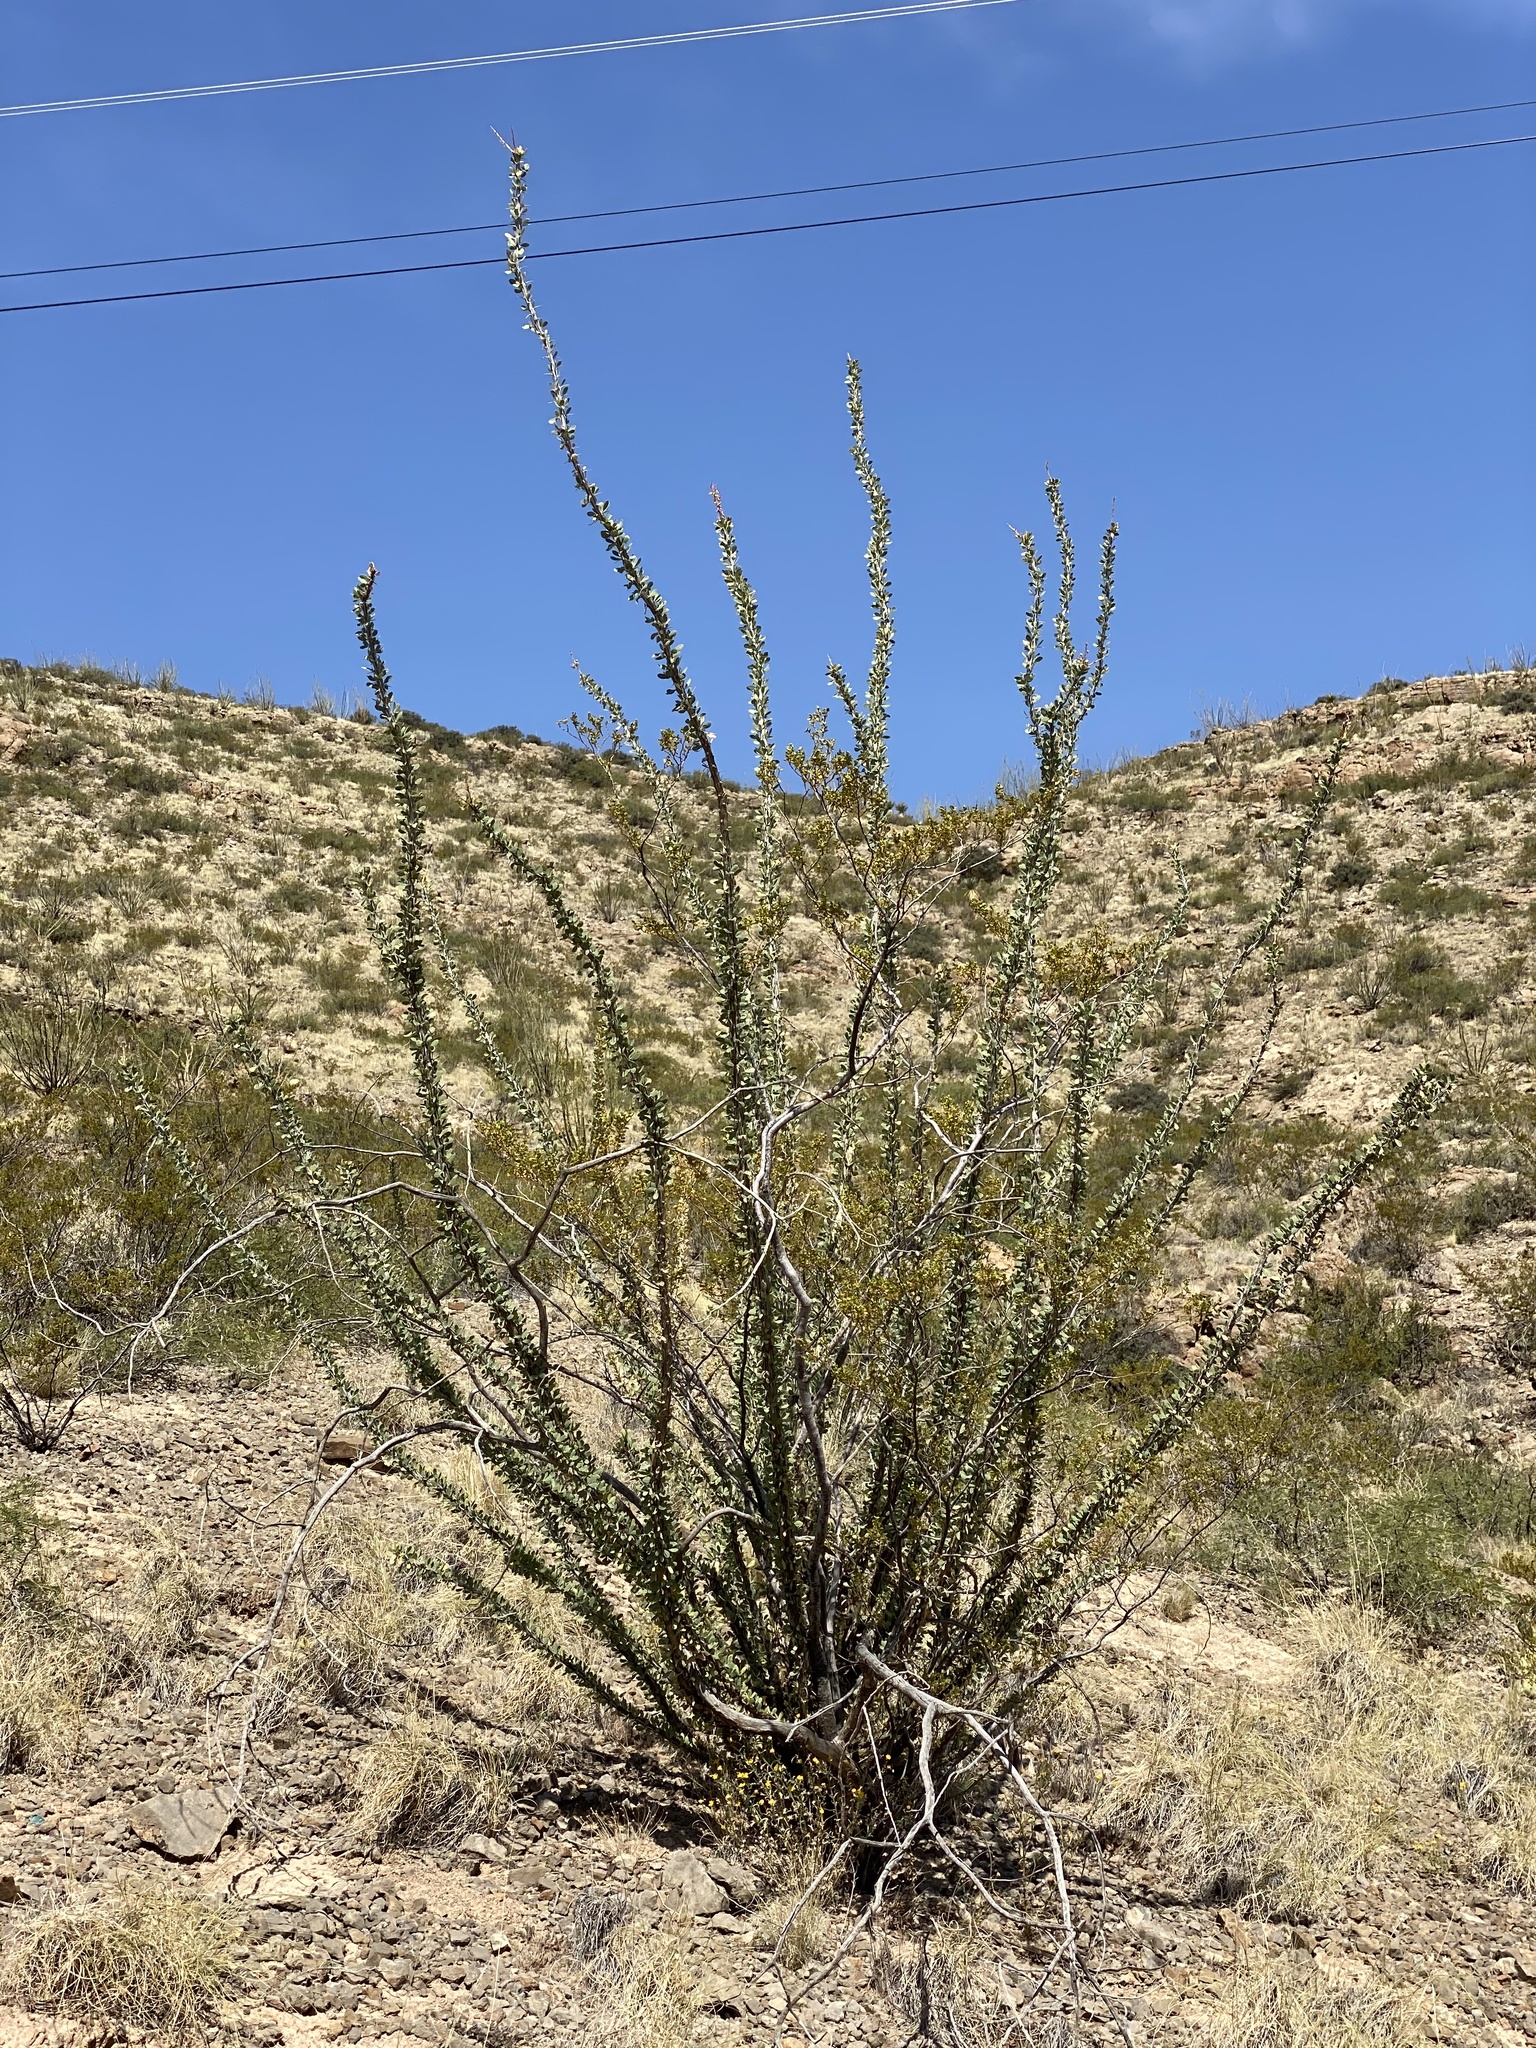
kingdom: Plantae
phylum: Tracheophyta
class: Magnoliopsida
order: Ericales
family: Fouquieriaceae
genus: Fouquieria
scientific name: Fouquieria splendens
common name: Vine-cactus
